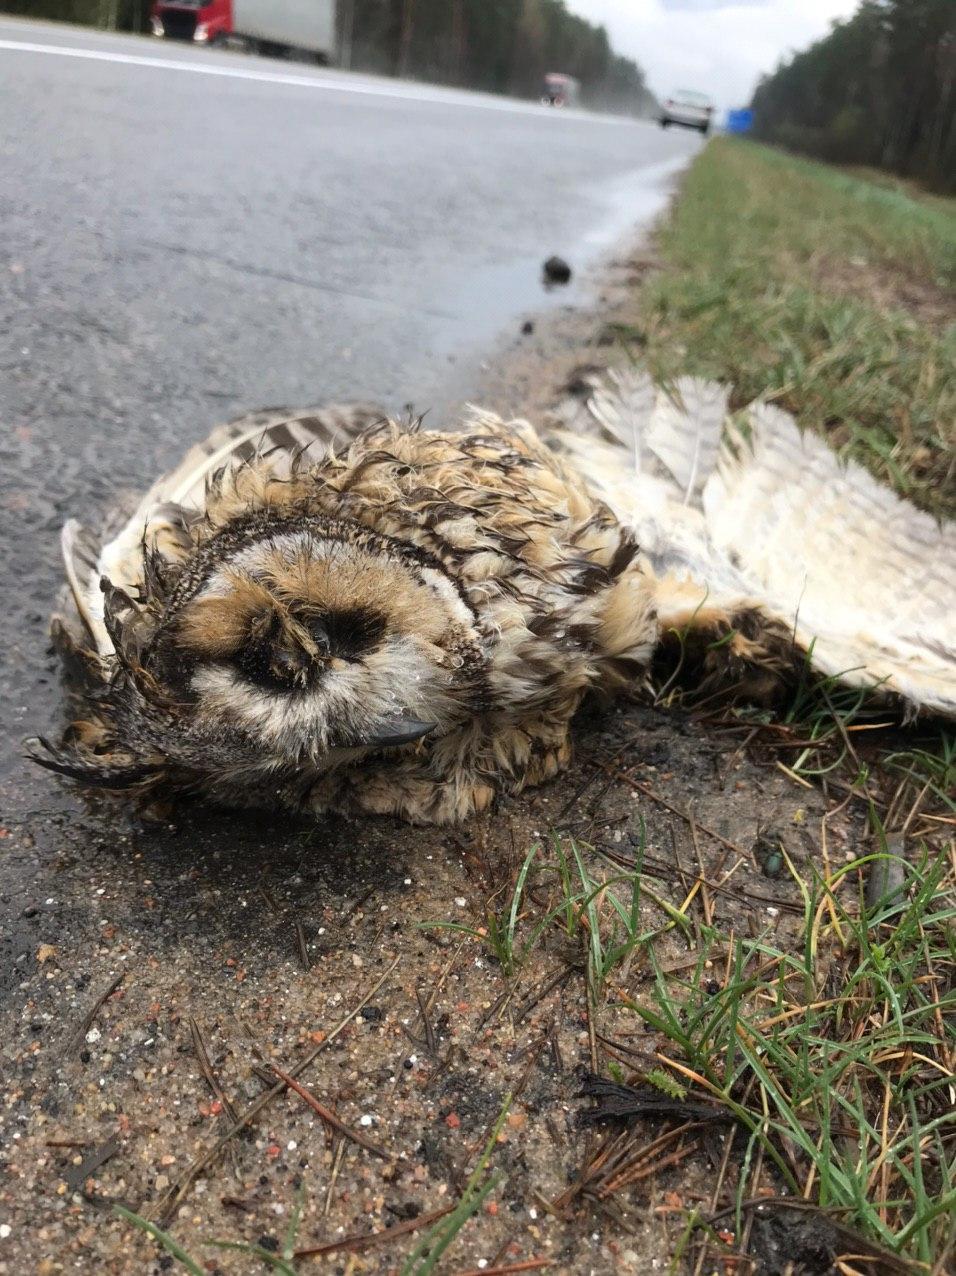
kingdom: Animalia
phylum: Chordata
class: Aves
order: Strigiformes
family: Strigidae
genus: Asio
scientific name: Asio otus
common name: Long-eared owl
